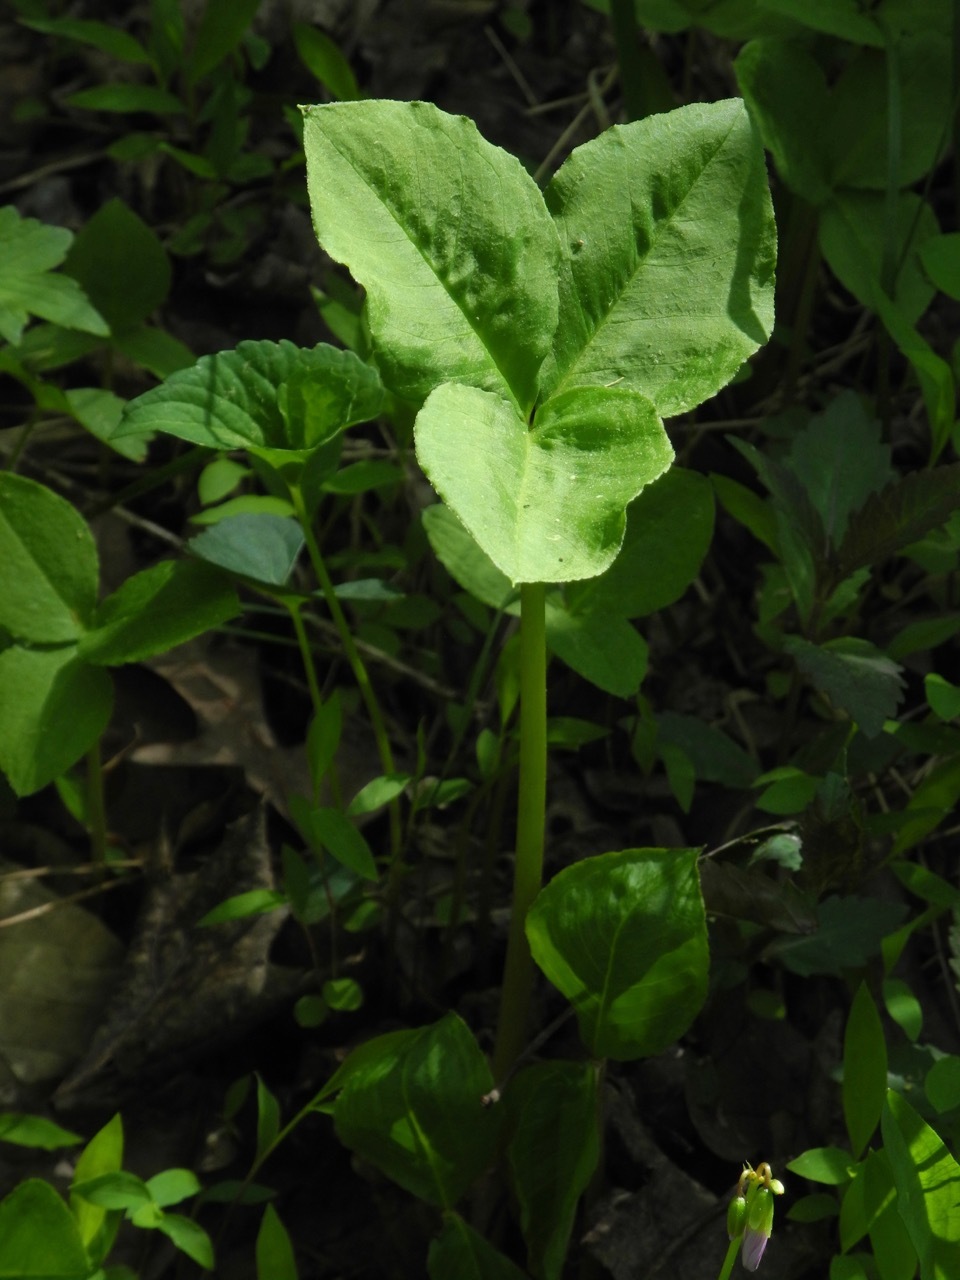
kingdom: Plantae
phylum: Tracheophyta
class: Liliopsida
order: Alismatales
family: Araceae
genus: Arisaema
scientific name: Arisaema triphyllum
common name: Jack-in-the-pulpit
